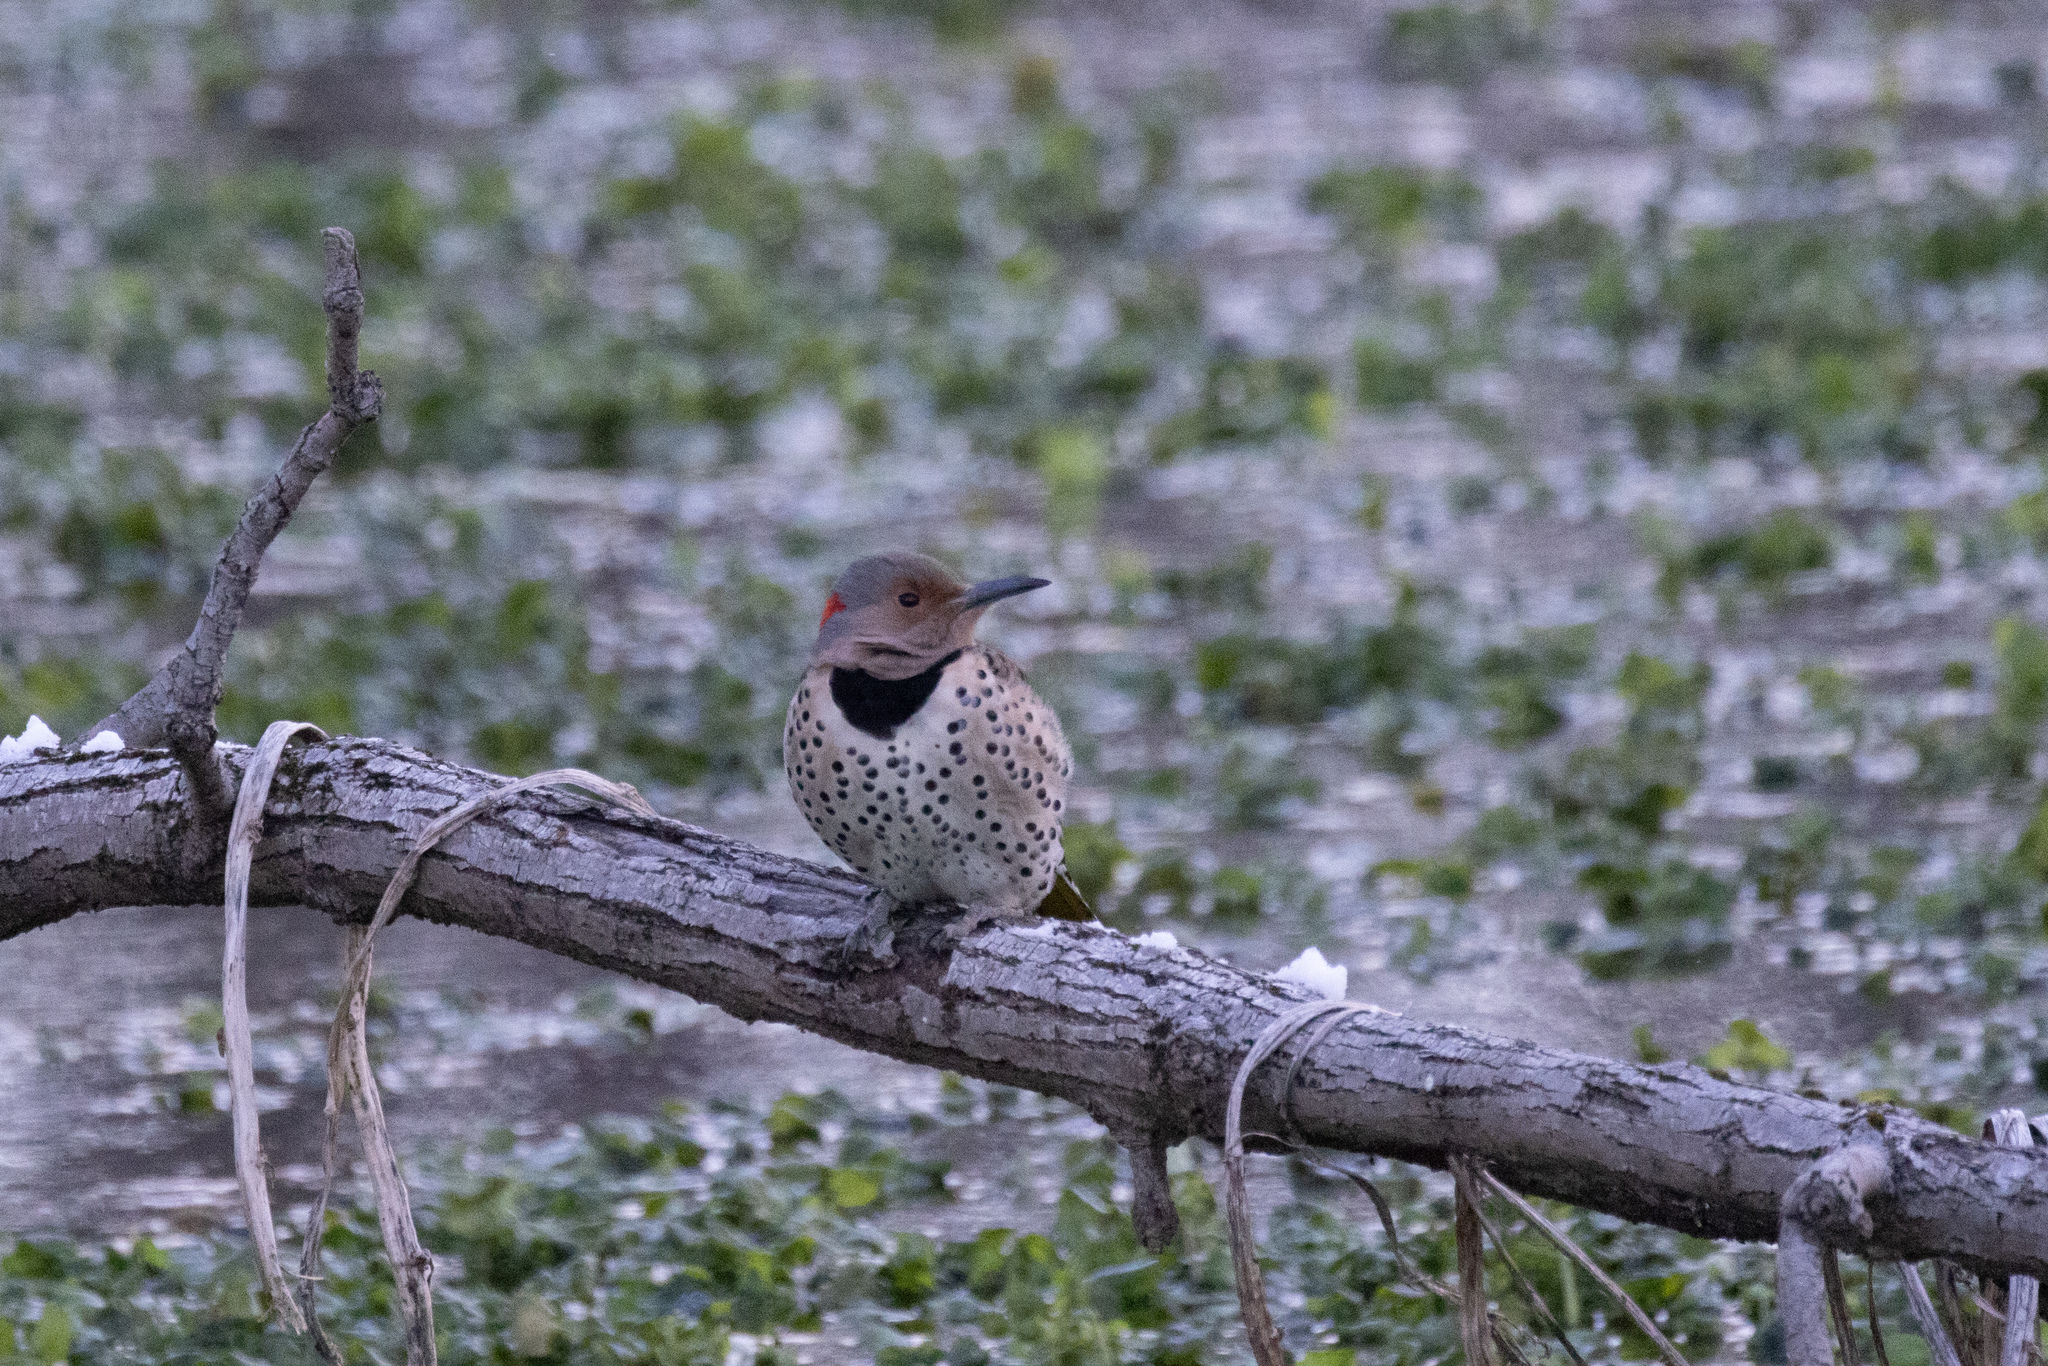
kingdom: Animalia
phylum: Chordata
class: Aves
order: Piciformes
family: Picidae
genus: Colaptes
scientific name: Colaptes auratus
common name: Northern flicker
